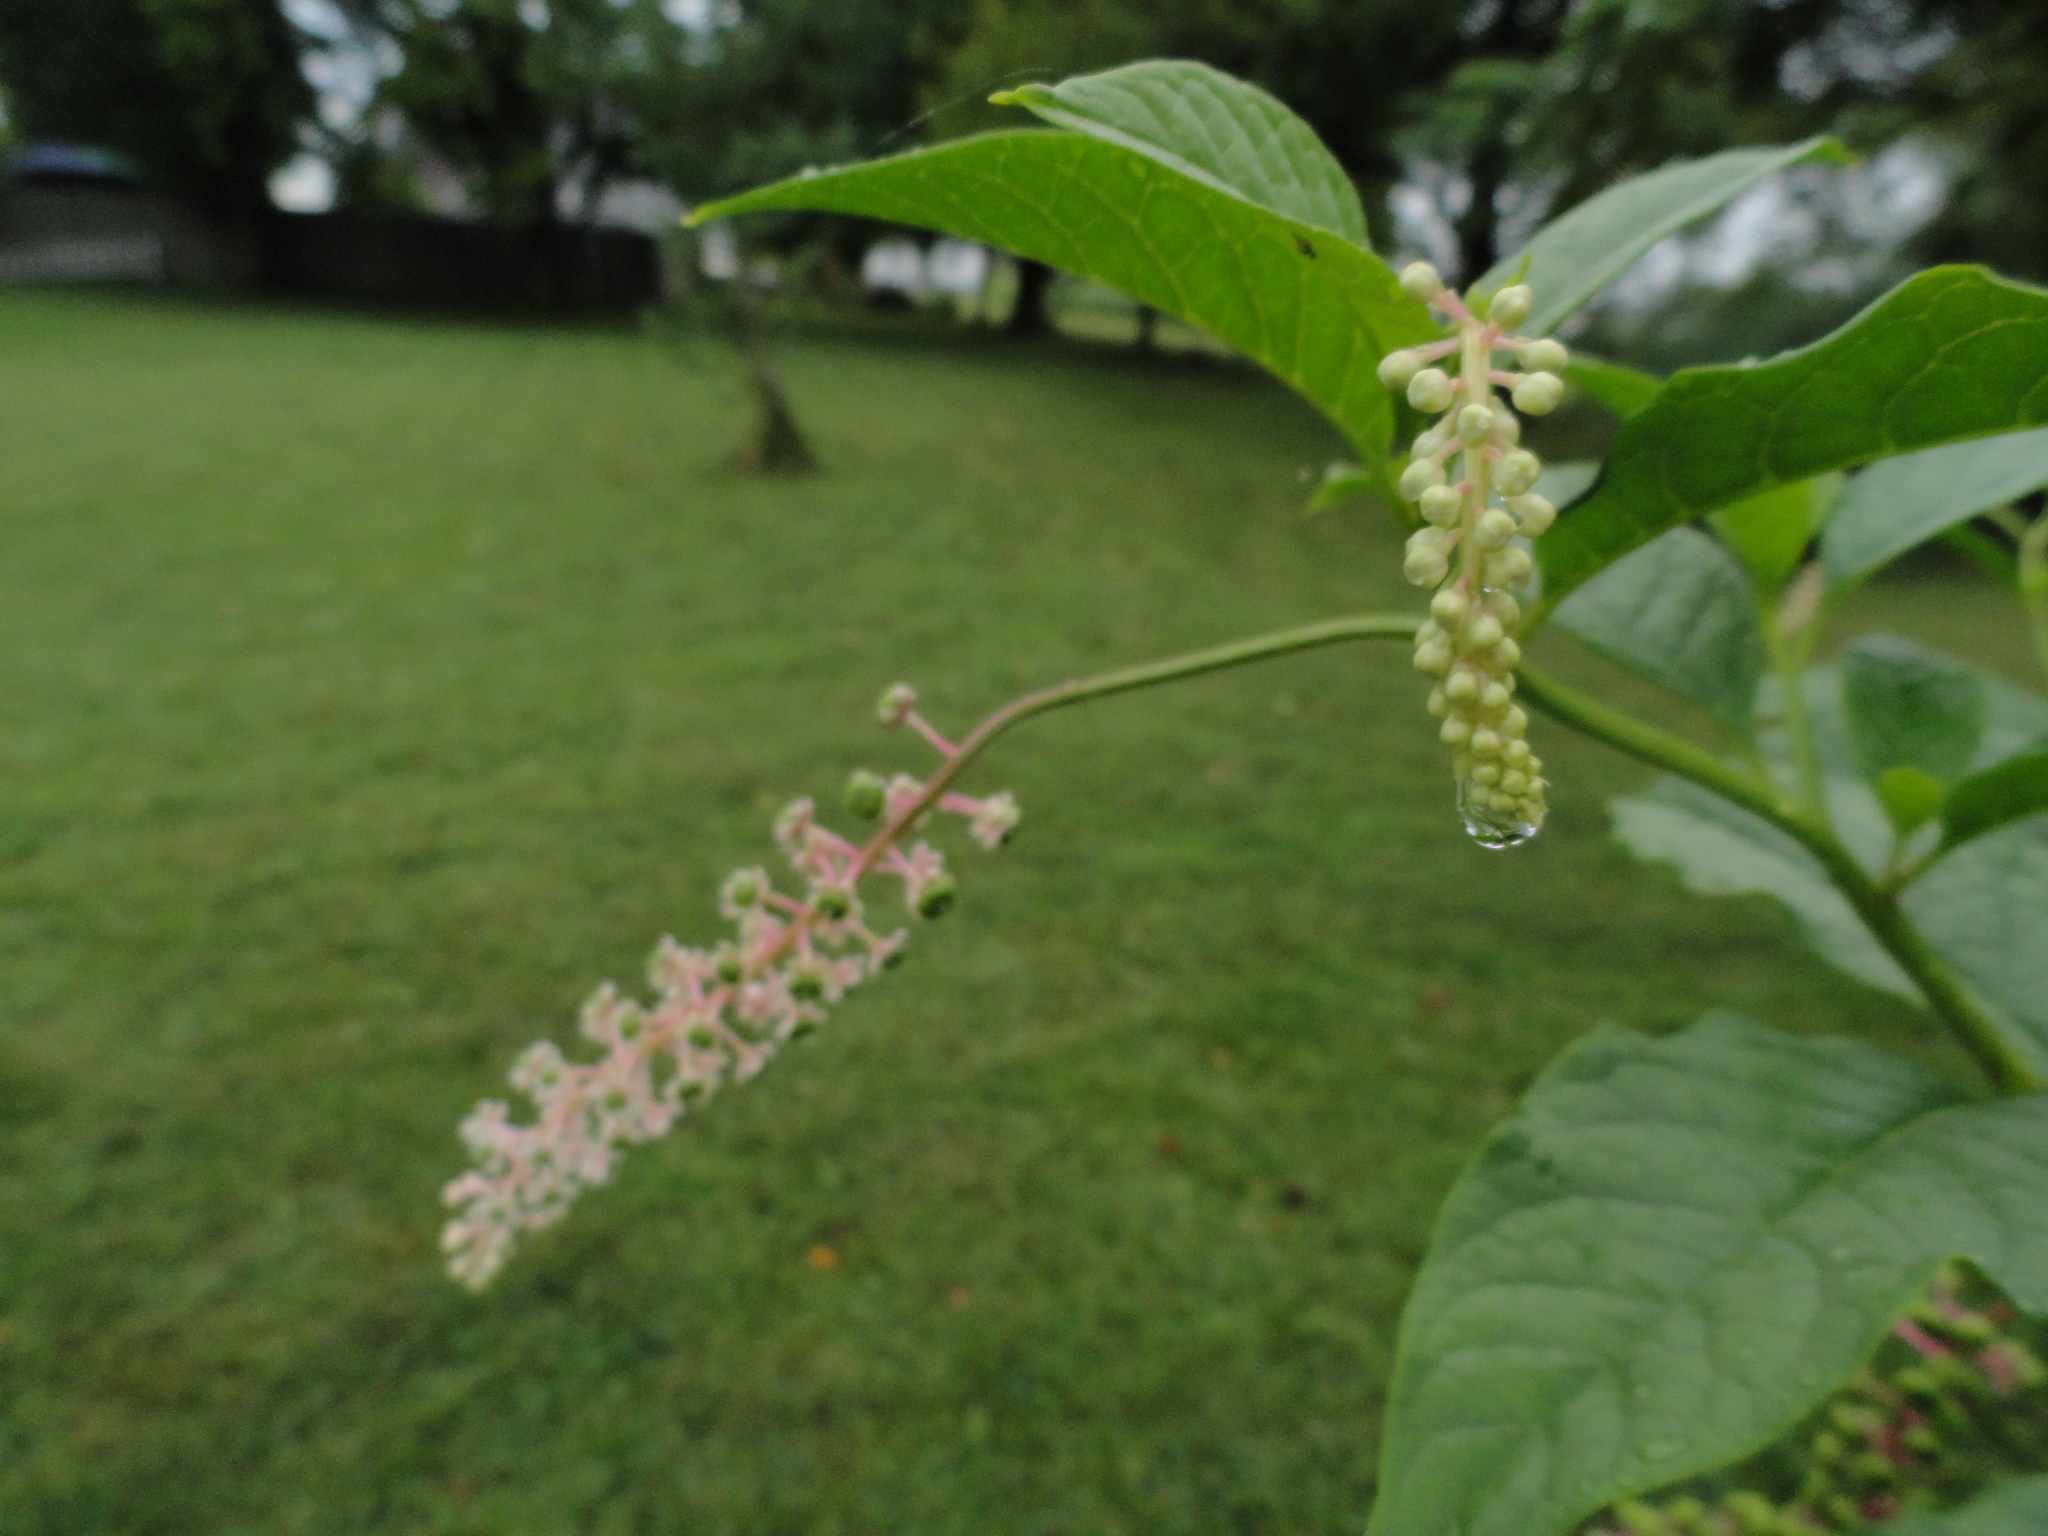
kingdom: Plantae
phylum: Tracheophyta
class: Magnoliopsida
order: Caryophyllales
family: Phytolaccaceae
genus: Phytolacca
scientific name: Phytolacca americana
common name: American pokeweed
